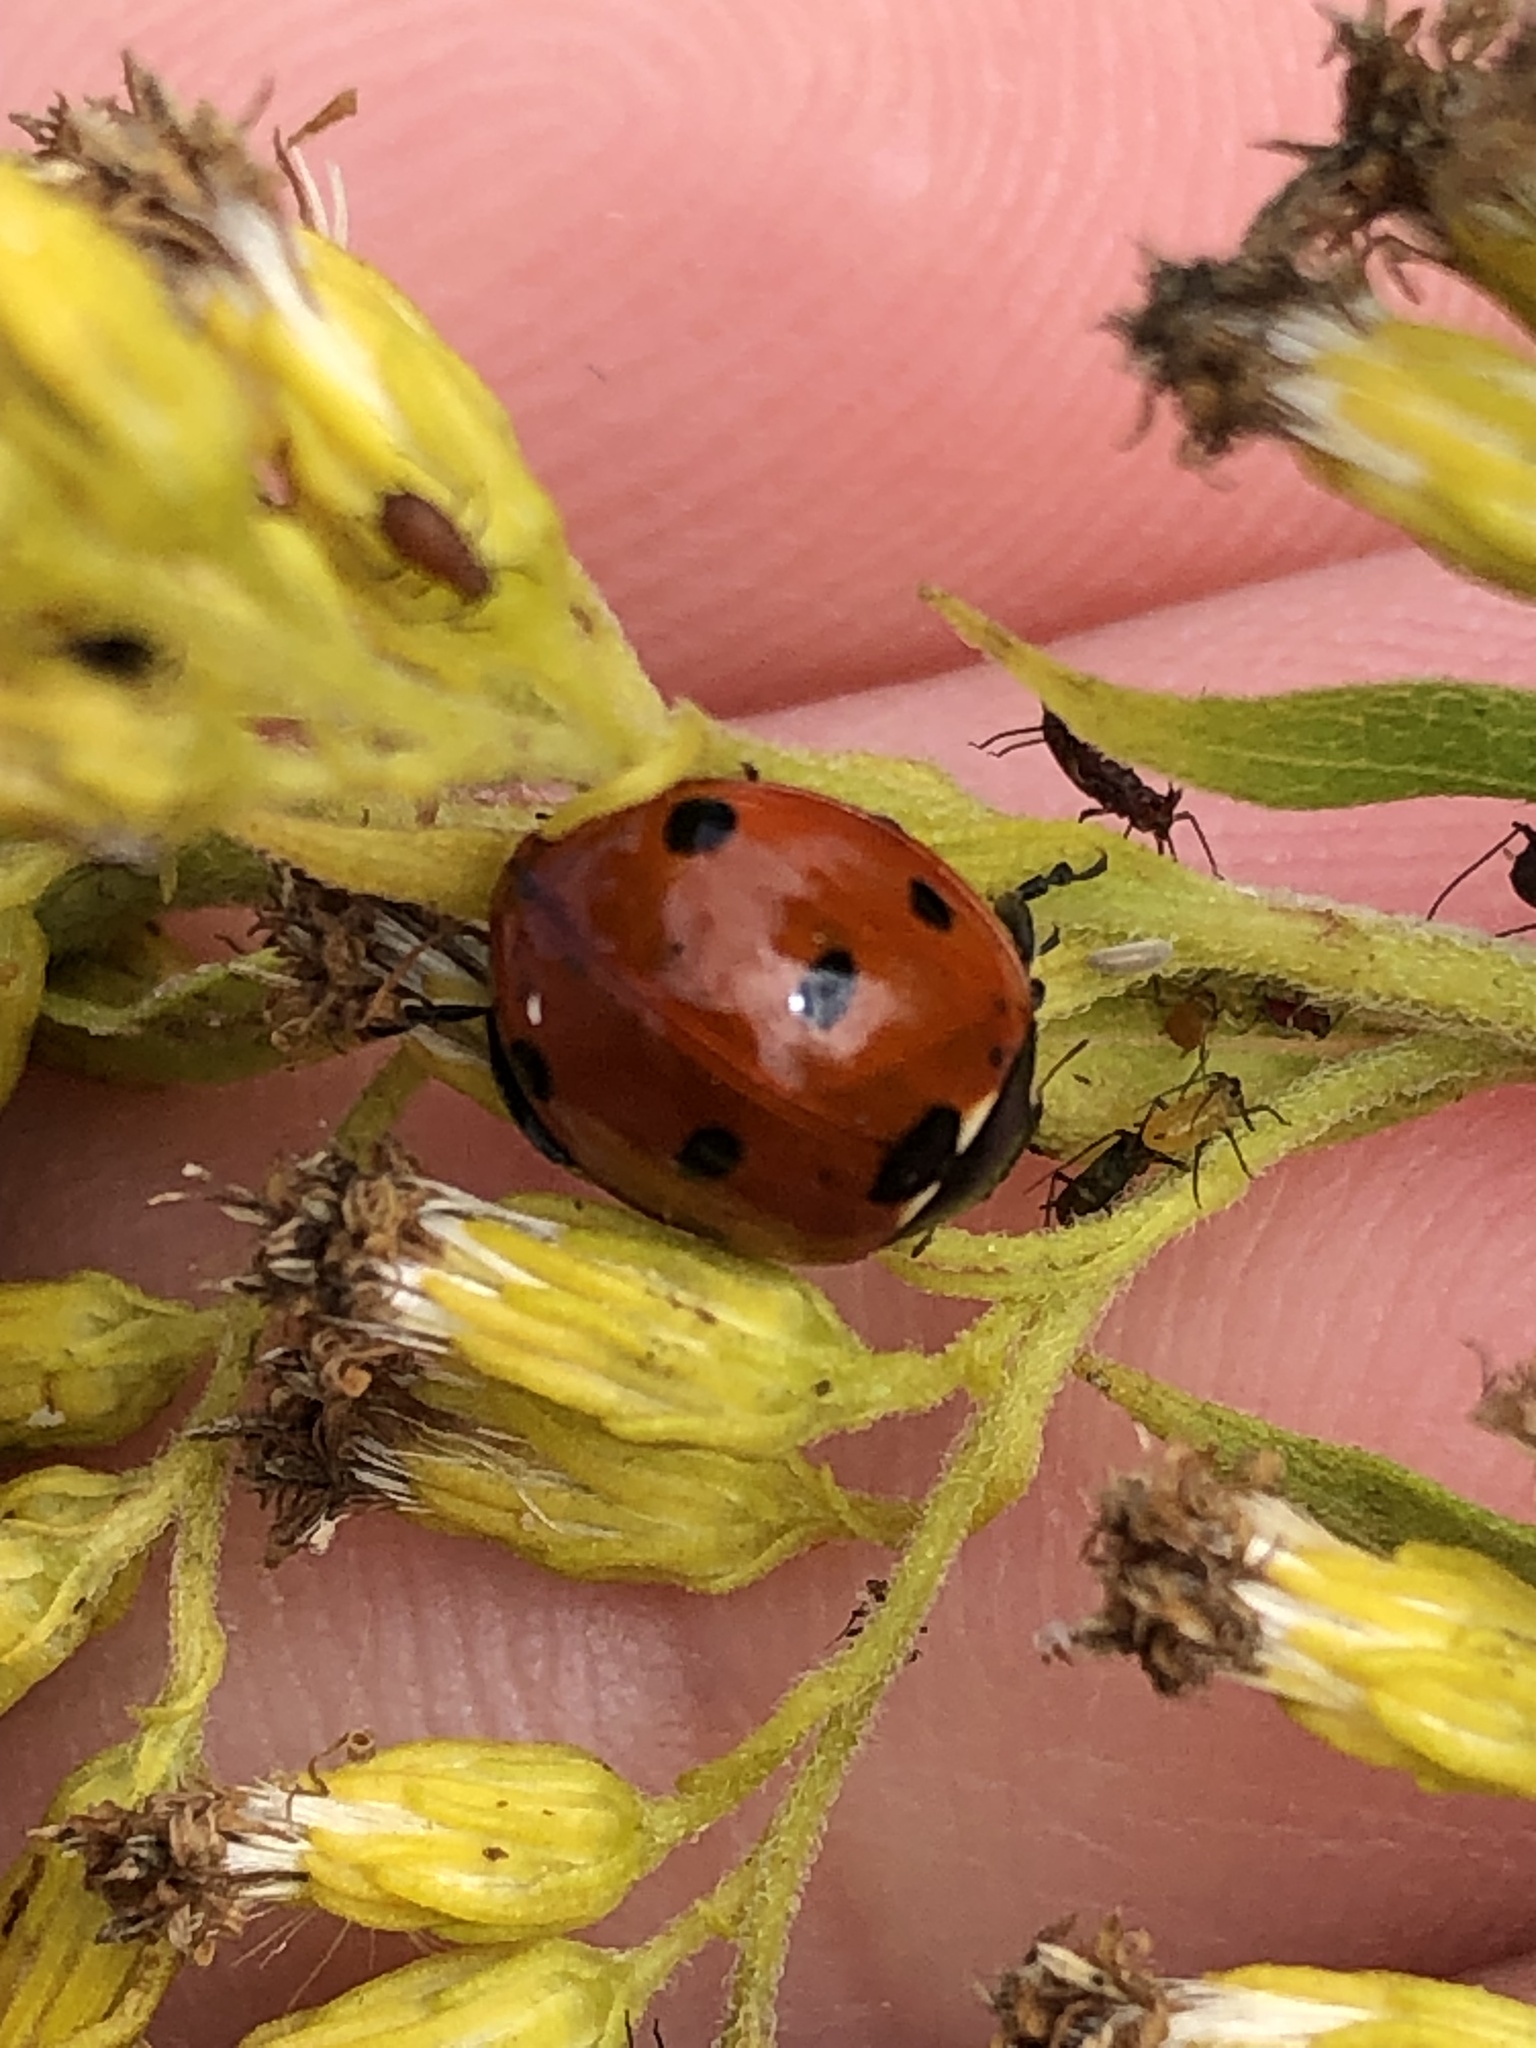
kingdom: Animalia
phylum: Arthropoda
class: Insecta
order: Coleoptera
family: Coccinellidae
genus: Coccinella
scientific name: Coccinella septempunctata
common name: Sevenspotted lady beetle
